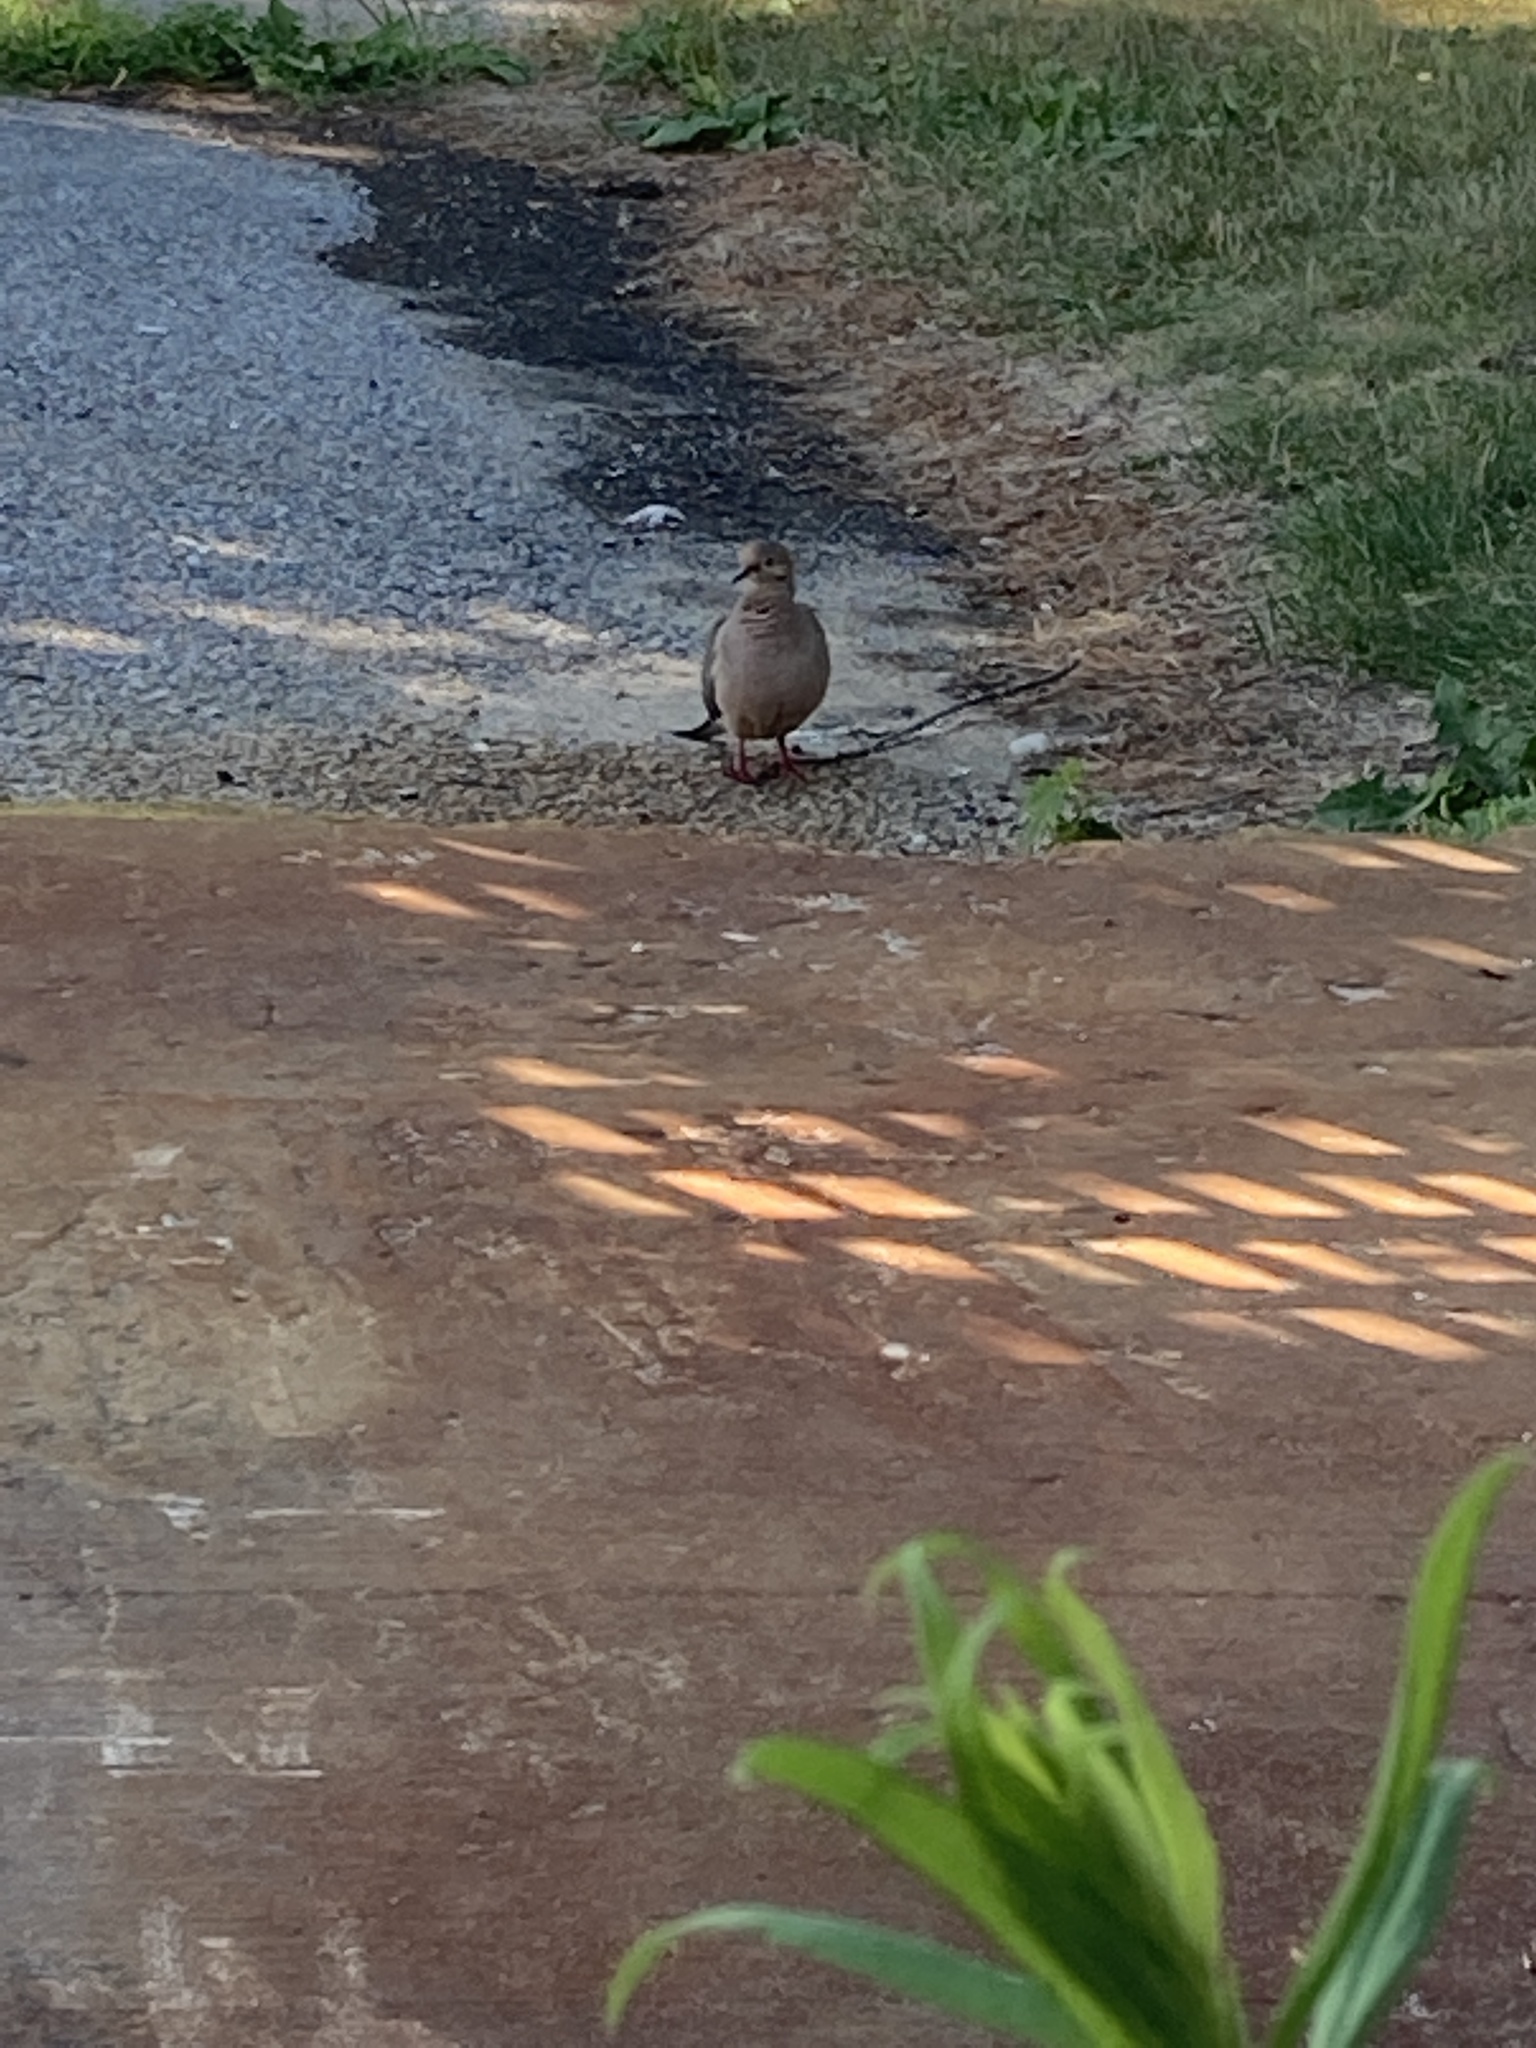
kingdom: Animalia
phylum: Chordata
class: Aves
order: Columbiformes
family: Columbidae
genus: Zenaida
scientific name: Zenaida macroura
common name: Mourning dove
